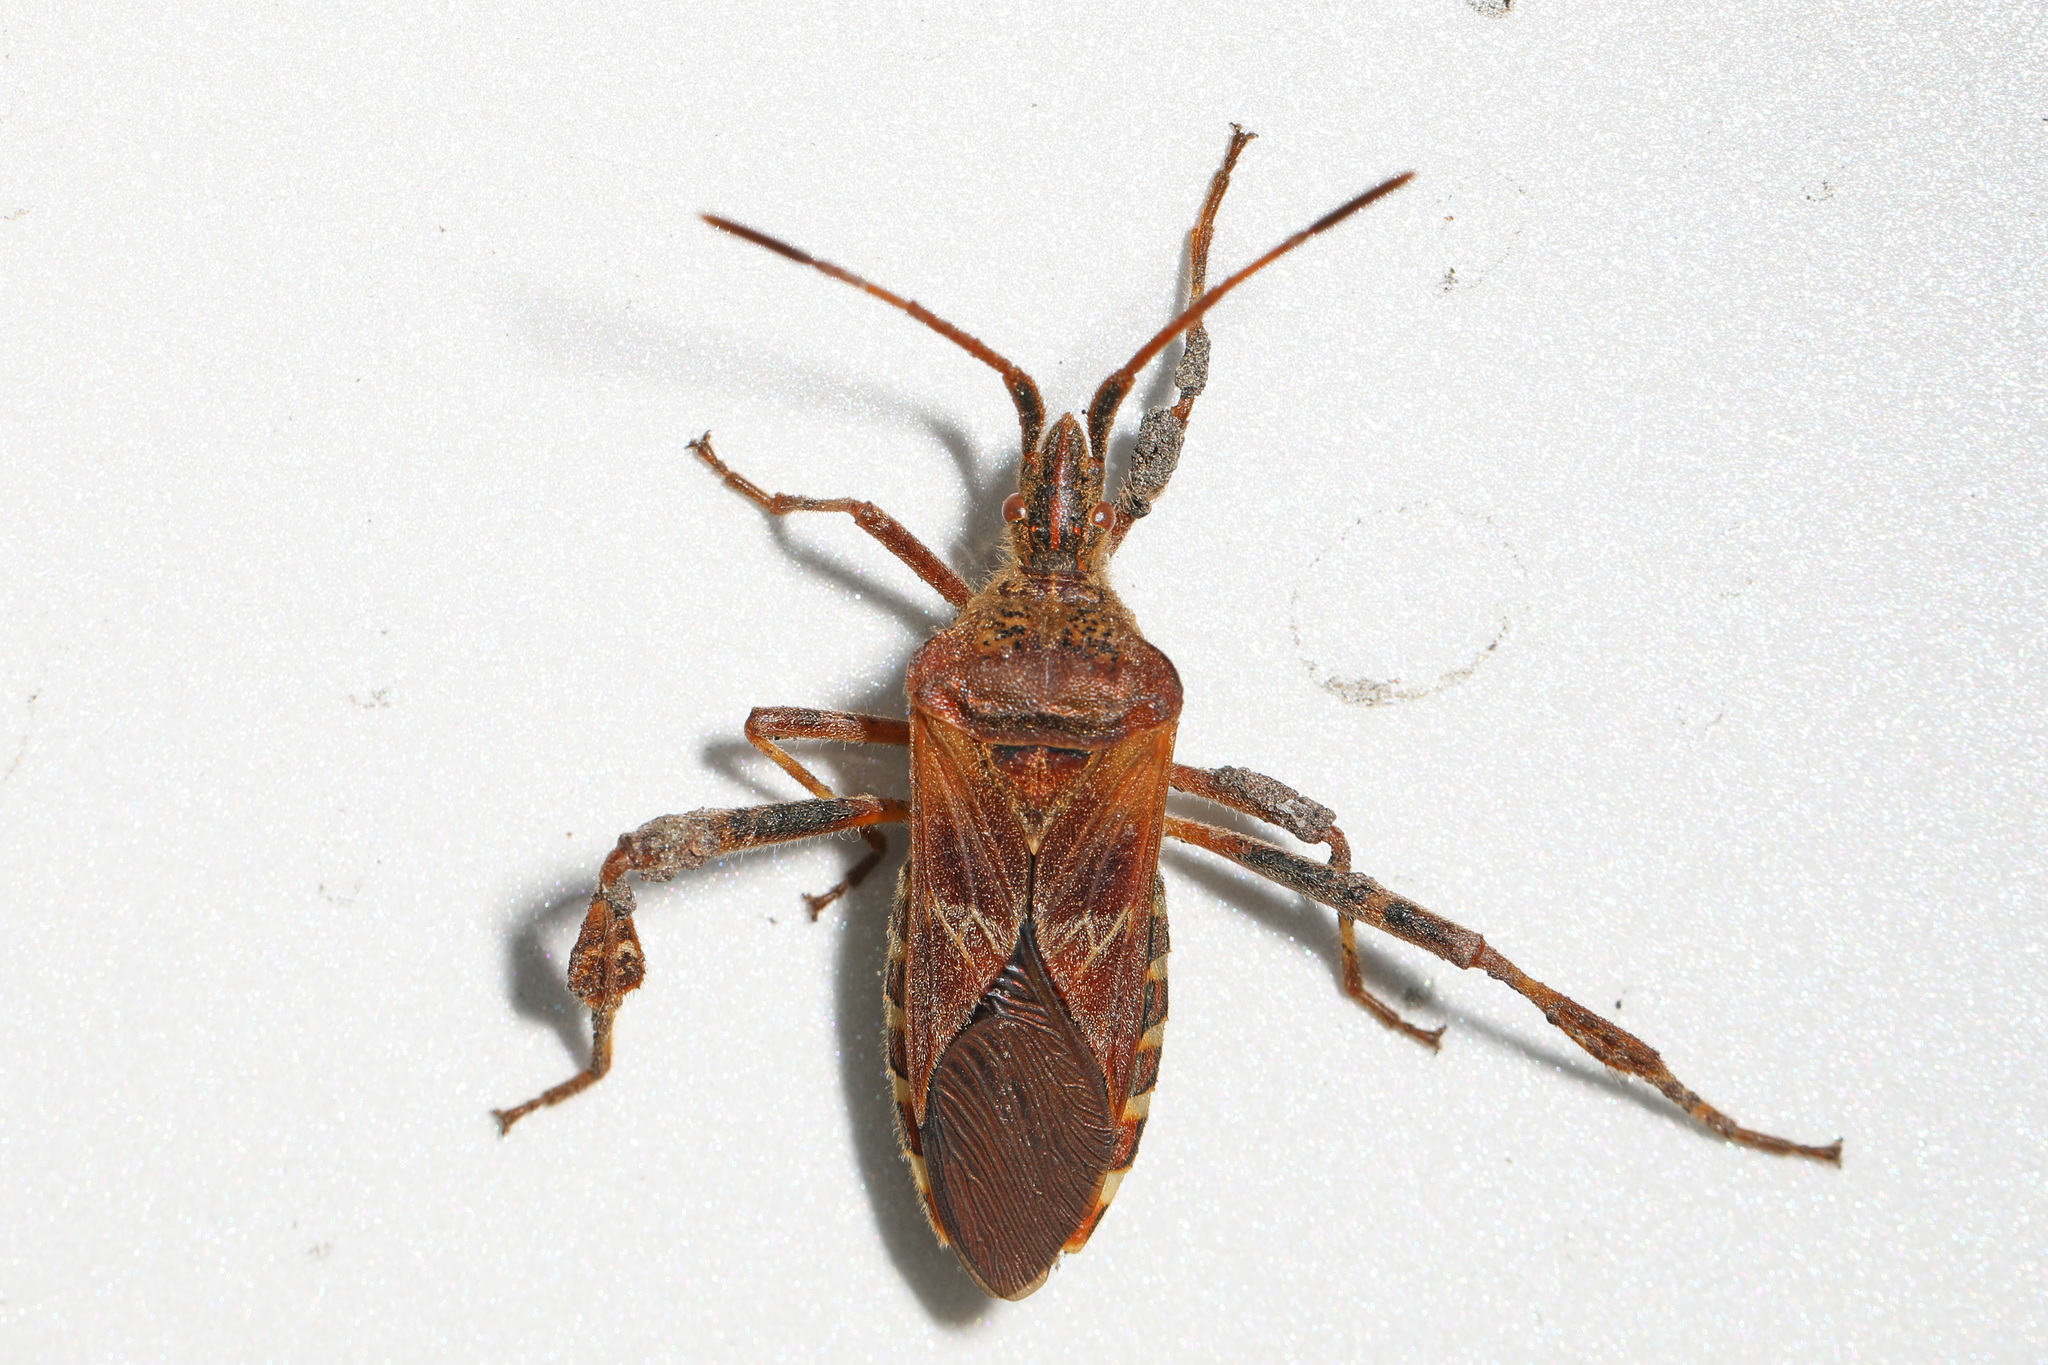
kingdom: Animalia
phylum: Arthropoda
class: Insecta
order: Hemiptera
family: Coreidae
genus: Leptoglossus
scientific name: Leptoglossus occidentalis
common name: Western conifer-seed bug
